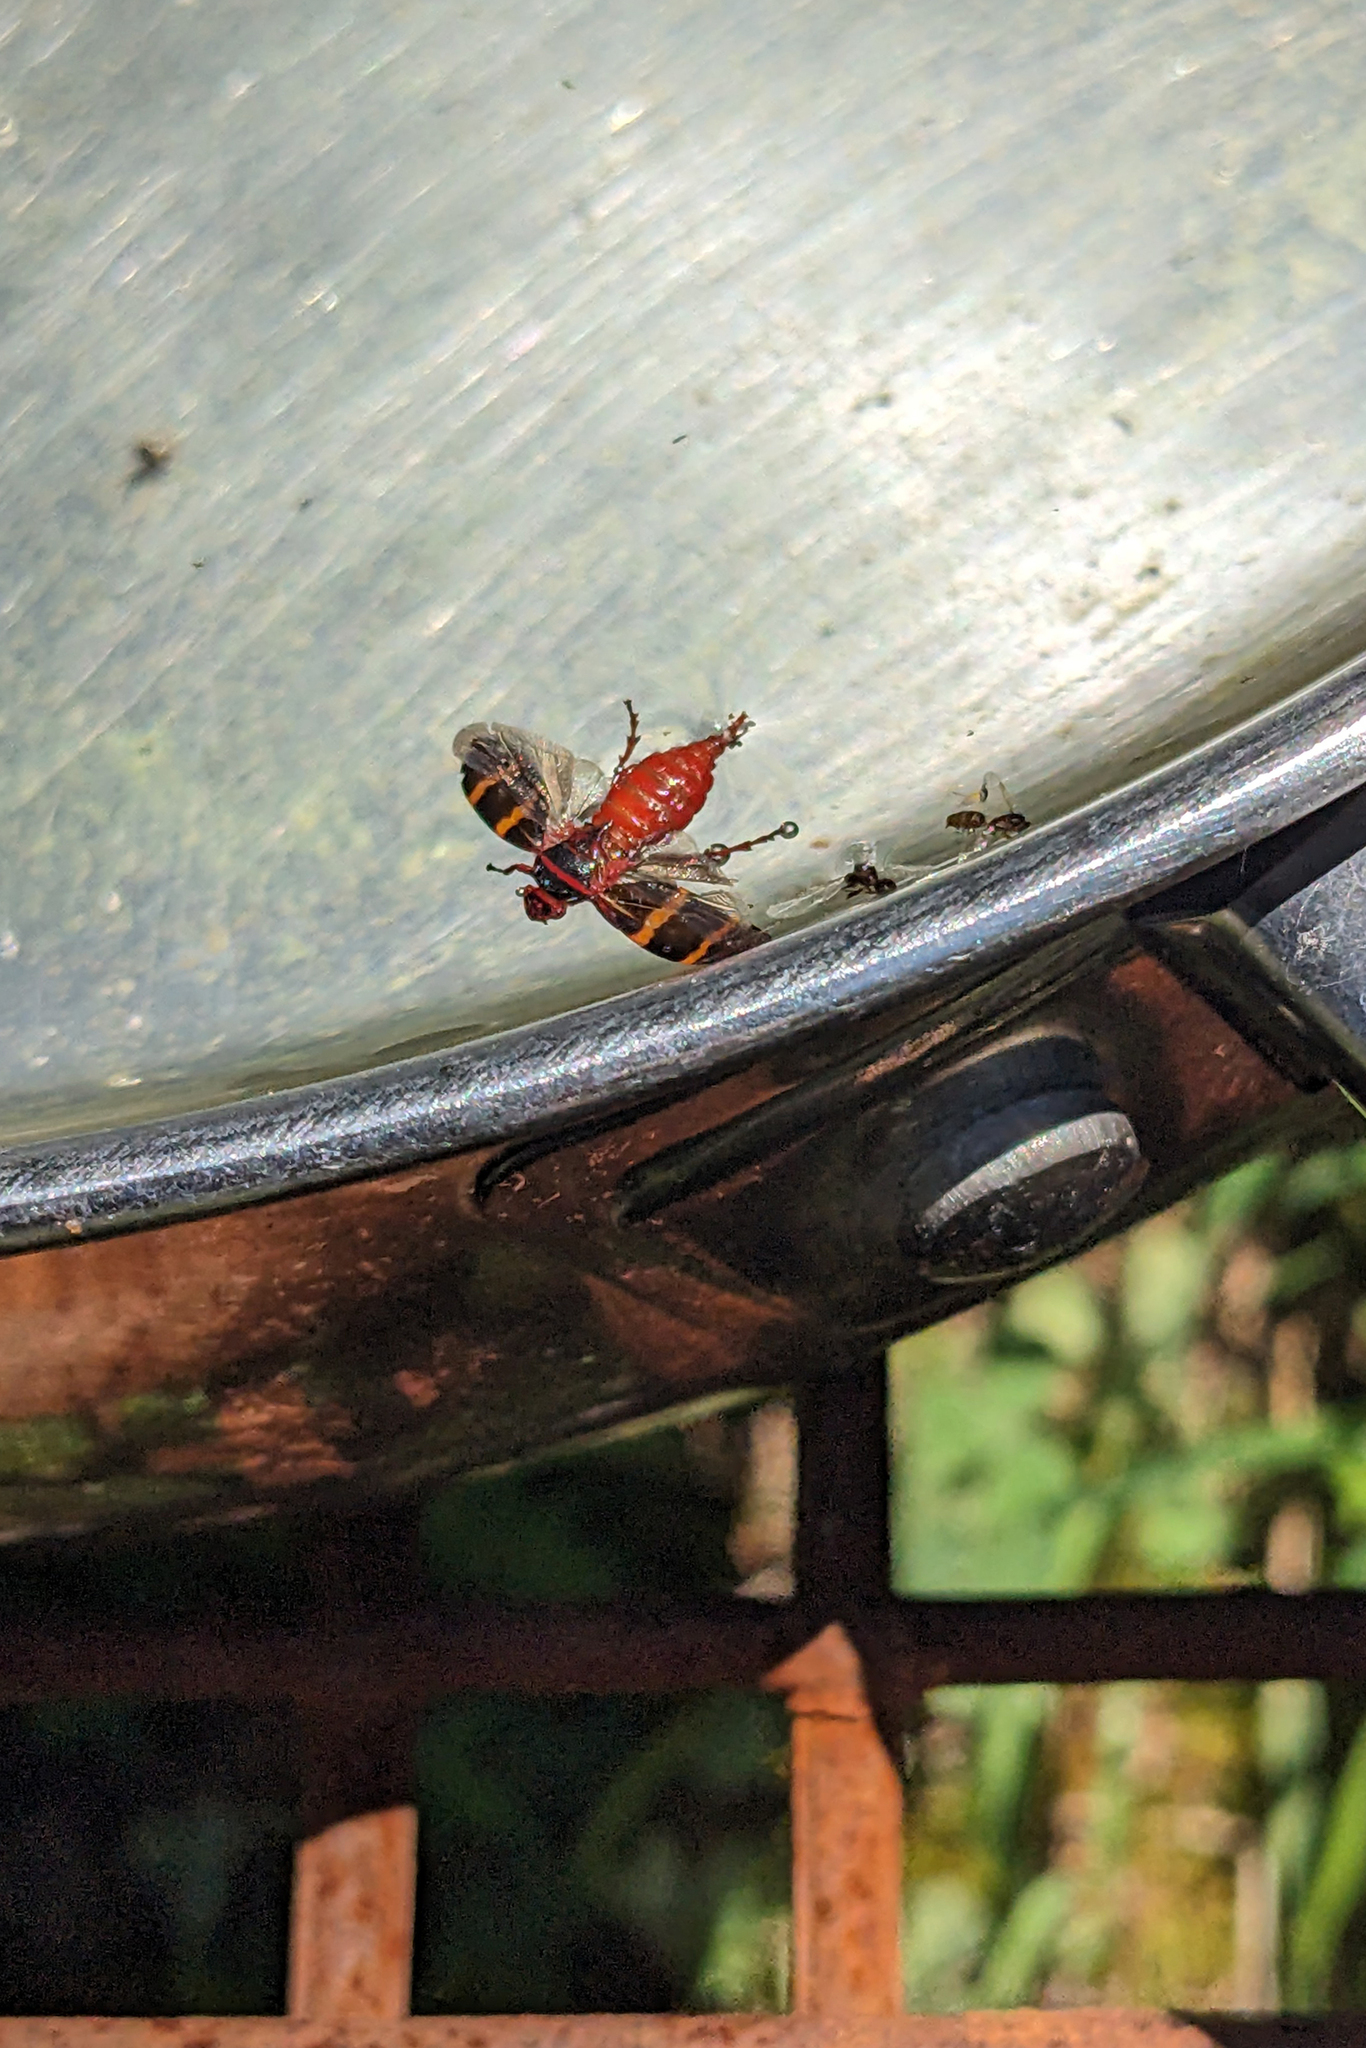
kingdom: Animalia
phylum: Arthropoda
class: Insecta
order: Hemiptera
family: Cercopidae
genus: Prosapia
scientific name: Prosapia bicincta
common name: Twolined spittlebug
